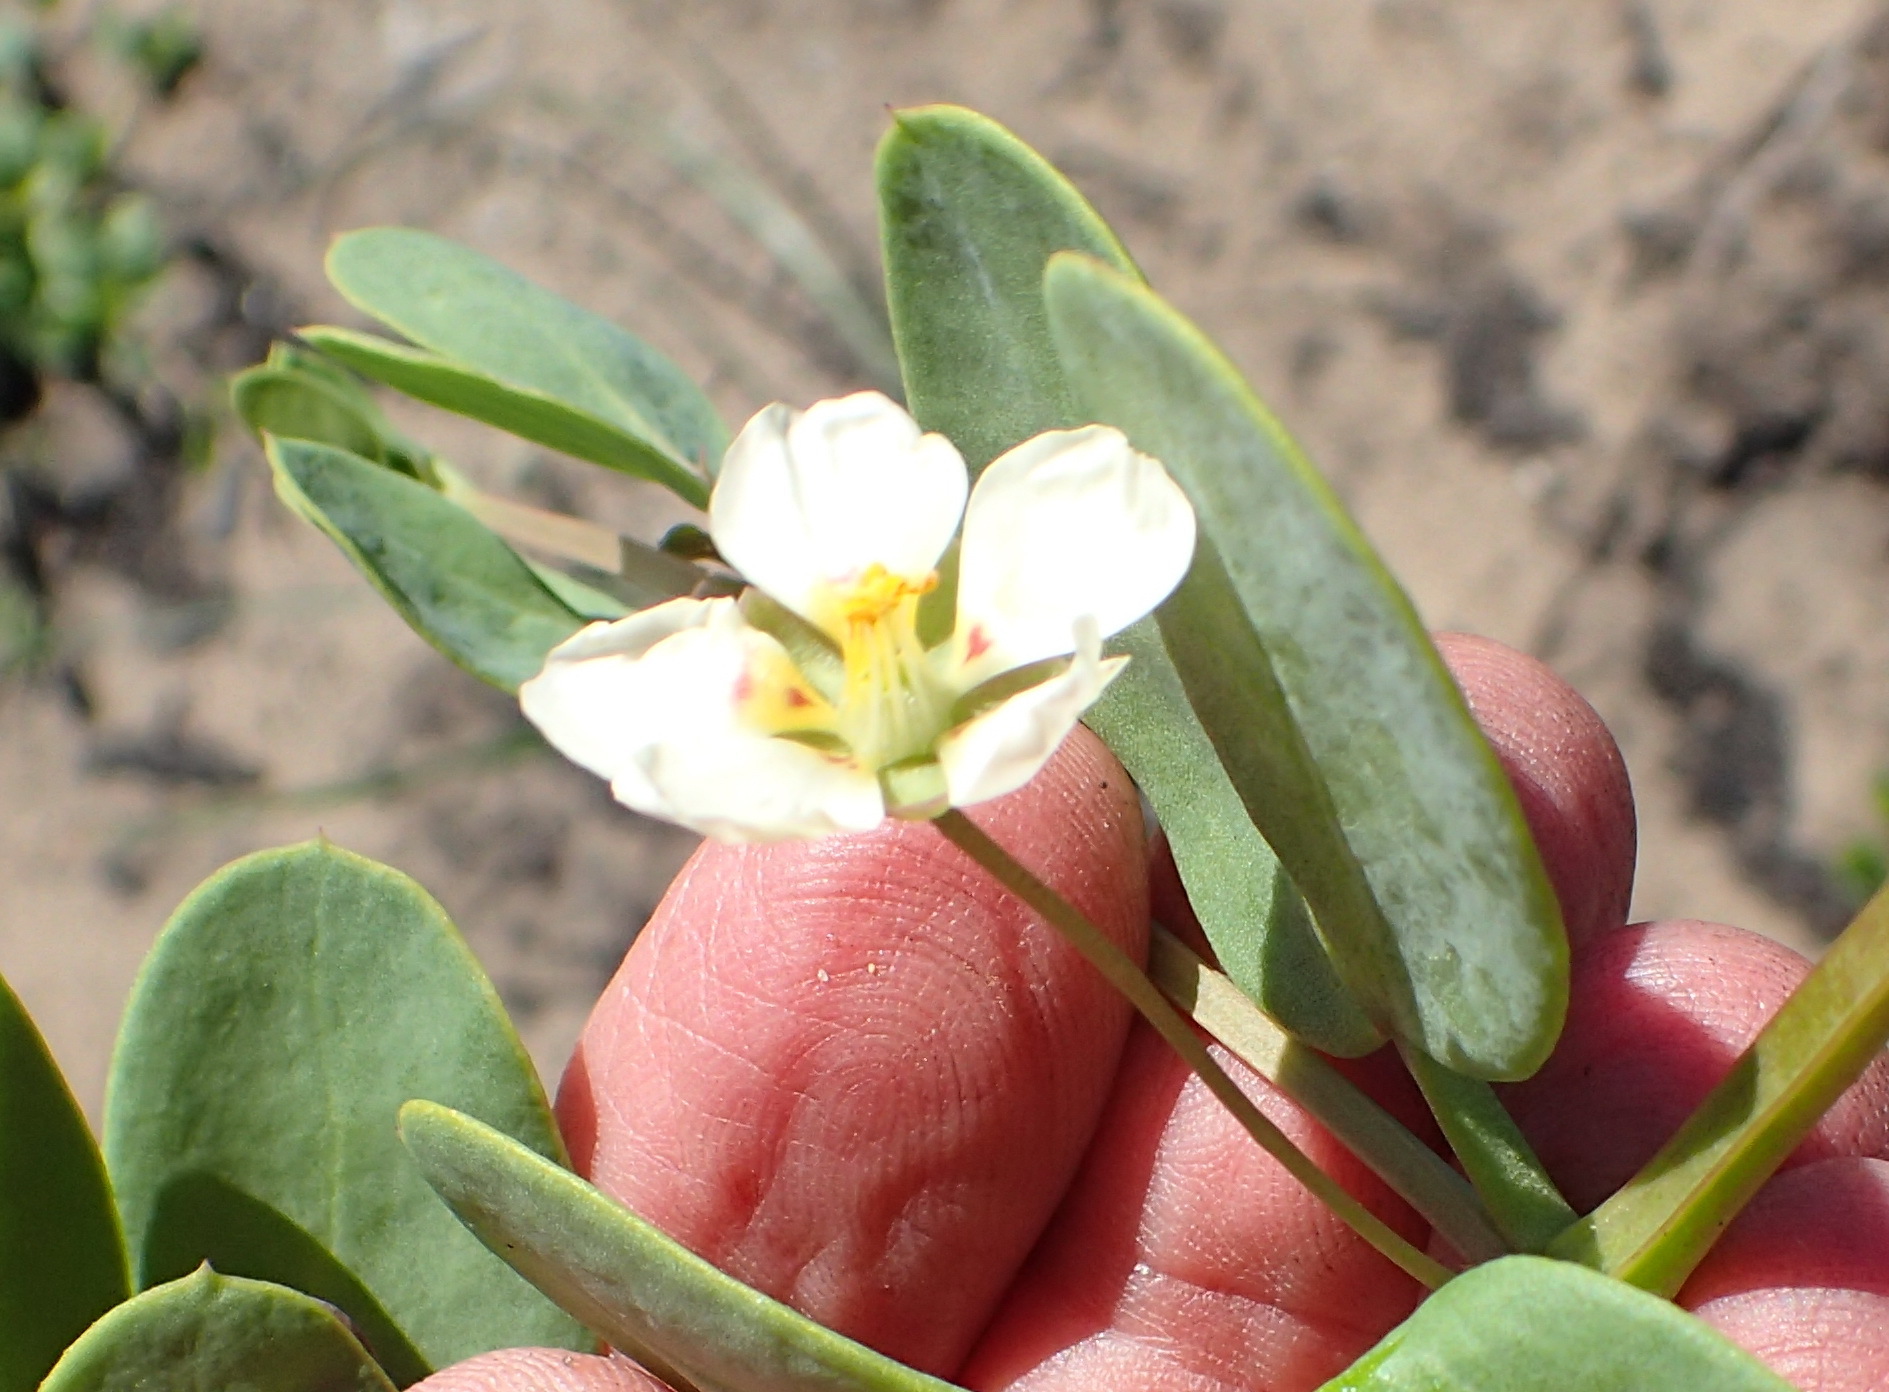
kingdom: Plantae
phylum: Tracheophyta
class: Magnoliopsida
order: Zygophyllales
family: Zygophyllaceae
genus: Roepera
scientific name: Roepera maritima
